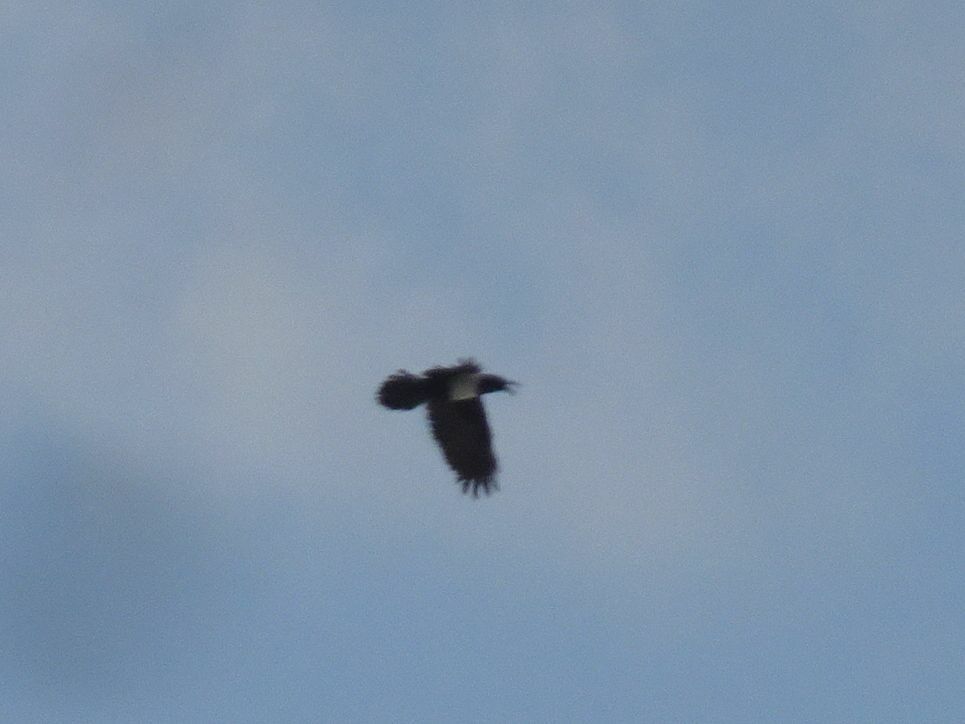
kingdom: Animalia
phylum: Chordata
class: Aves
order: Passeriformes
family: Corvidae
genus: Corvus
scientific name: Corvus albus
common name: Pied crow
